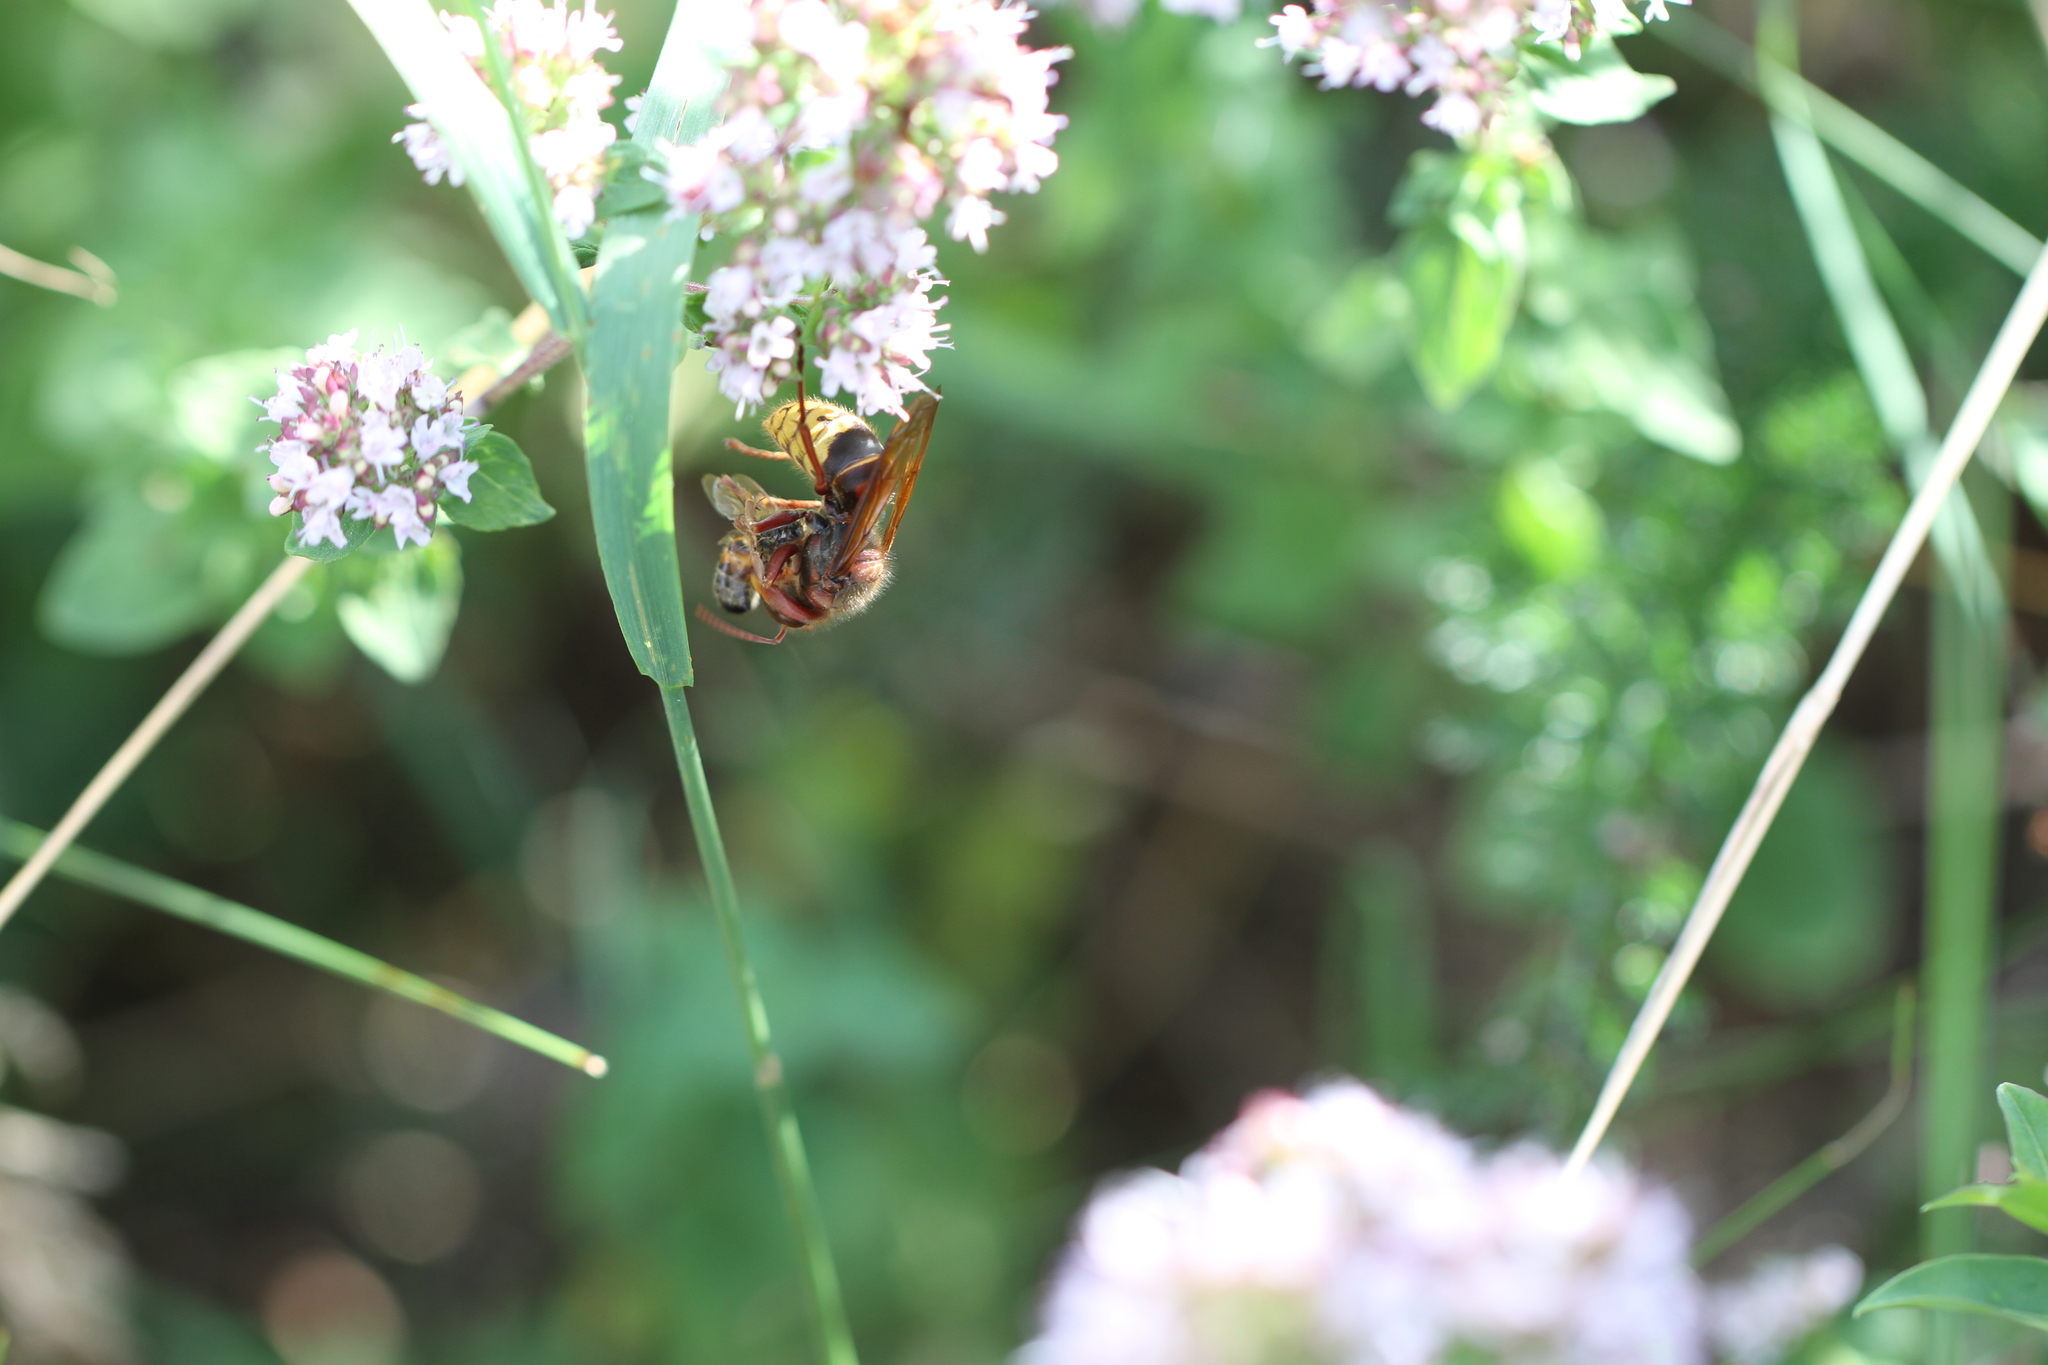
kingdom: Animalia
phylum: Arthropoda
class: Insecta
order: Hymenoptera
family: Vespidae
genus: Vespa
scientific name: Vespa crabro
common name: Hornet
